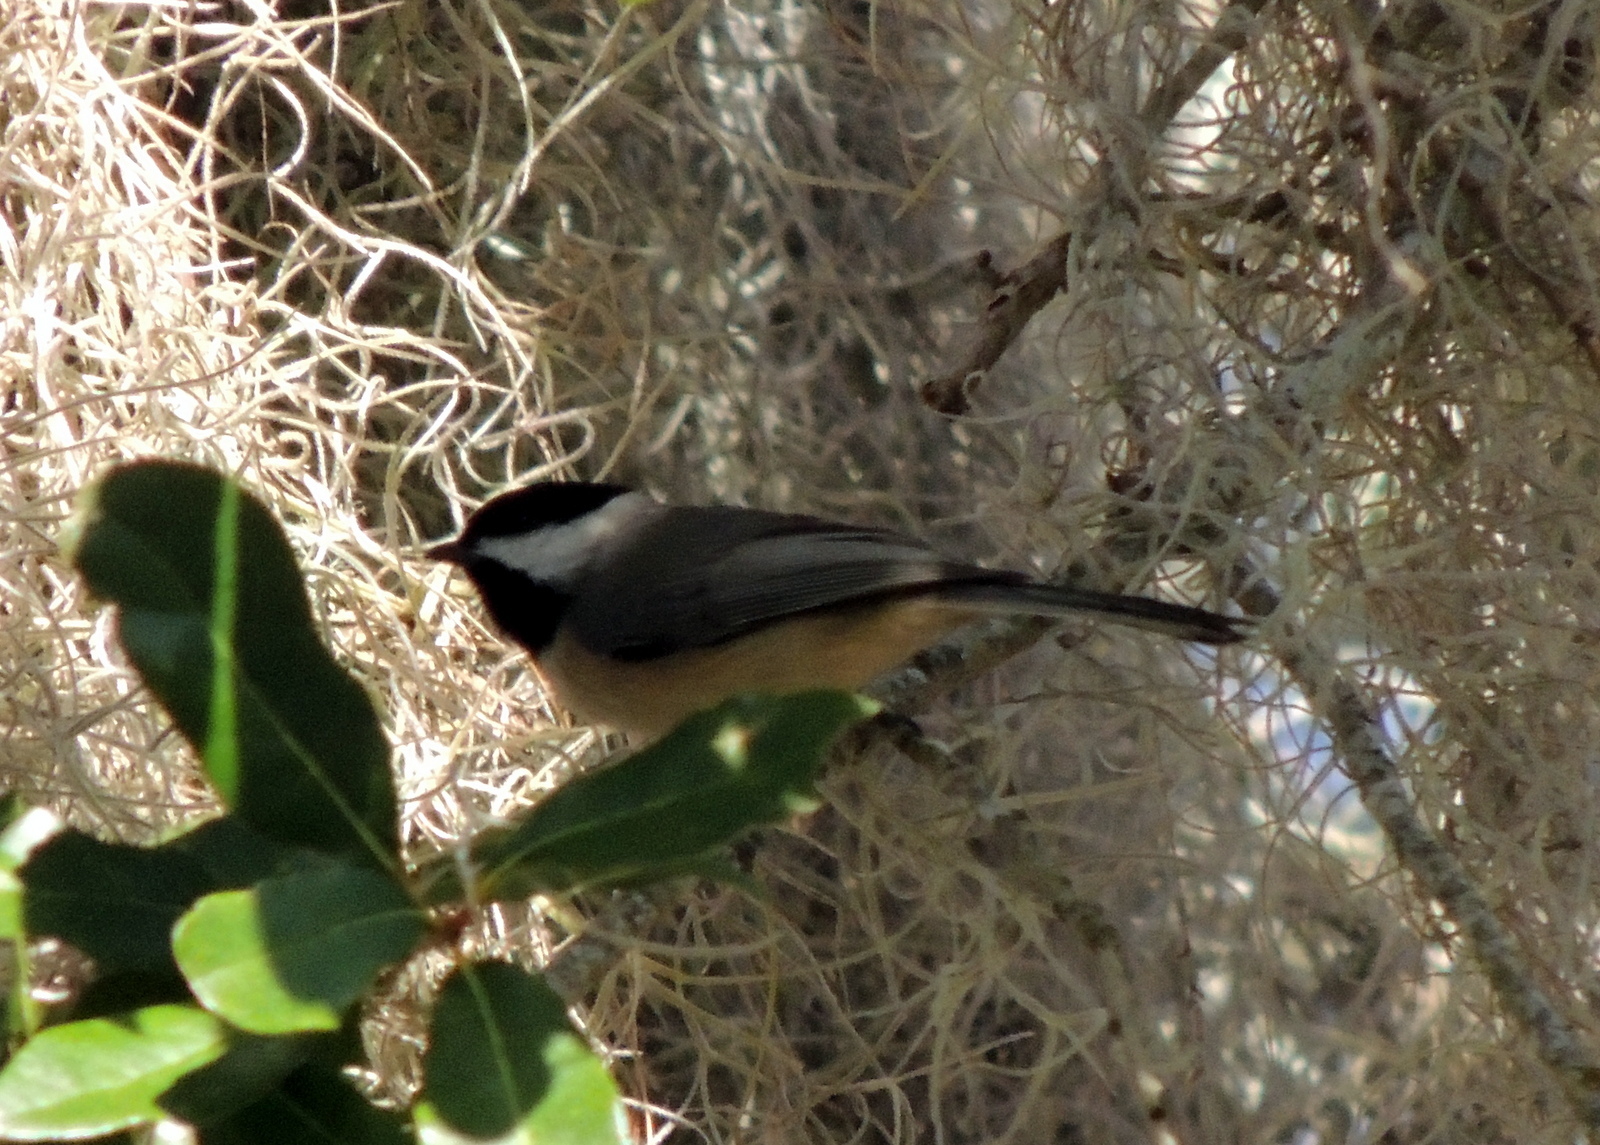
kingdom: Animalia
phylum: Chordata
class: Aves
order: Passeriformes
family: Paridae
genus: Poecile
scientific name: Poecile carolinensis
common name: Carolina chickadee
